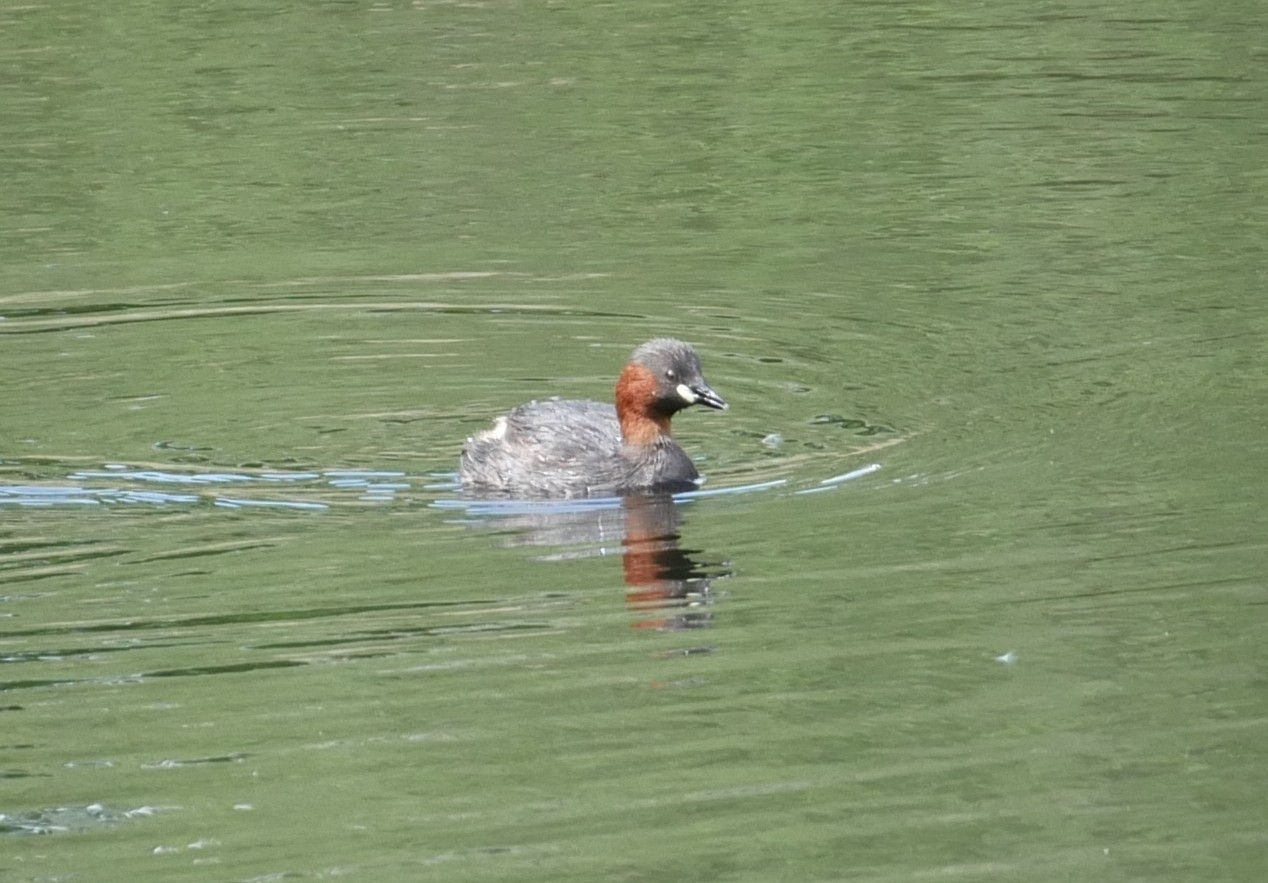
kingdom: Animalia
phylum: Chordata
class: Aves
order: Podicipediformes
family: Podicipedidae
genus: Tachybaptus
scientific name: Tachybaptus ruficollis
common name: Little grebe
